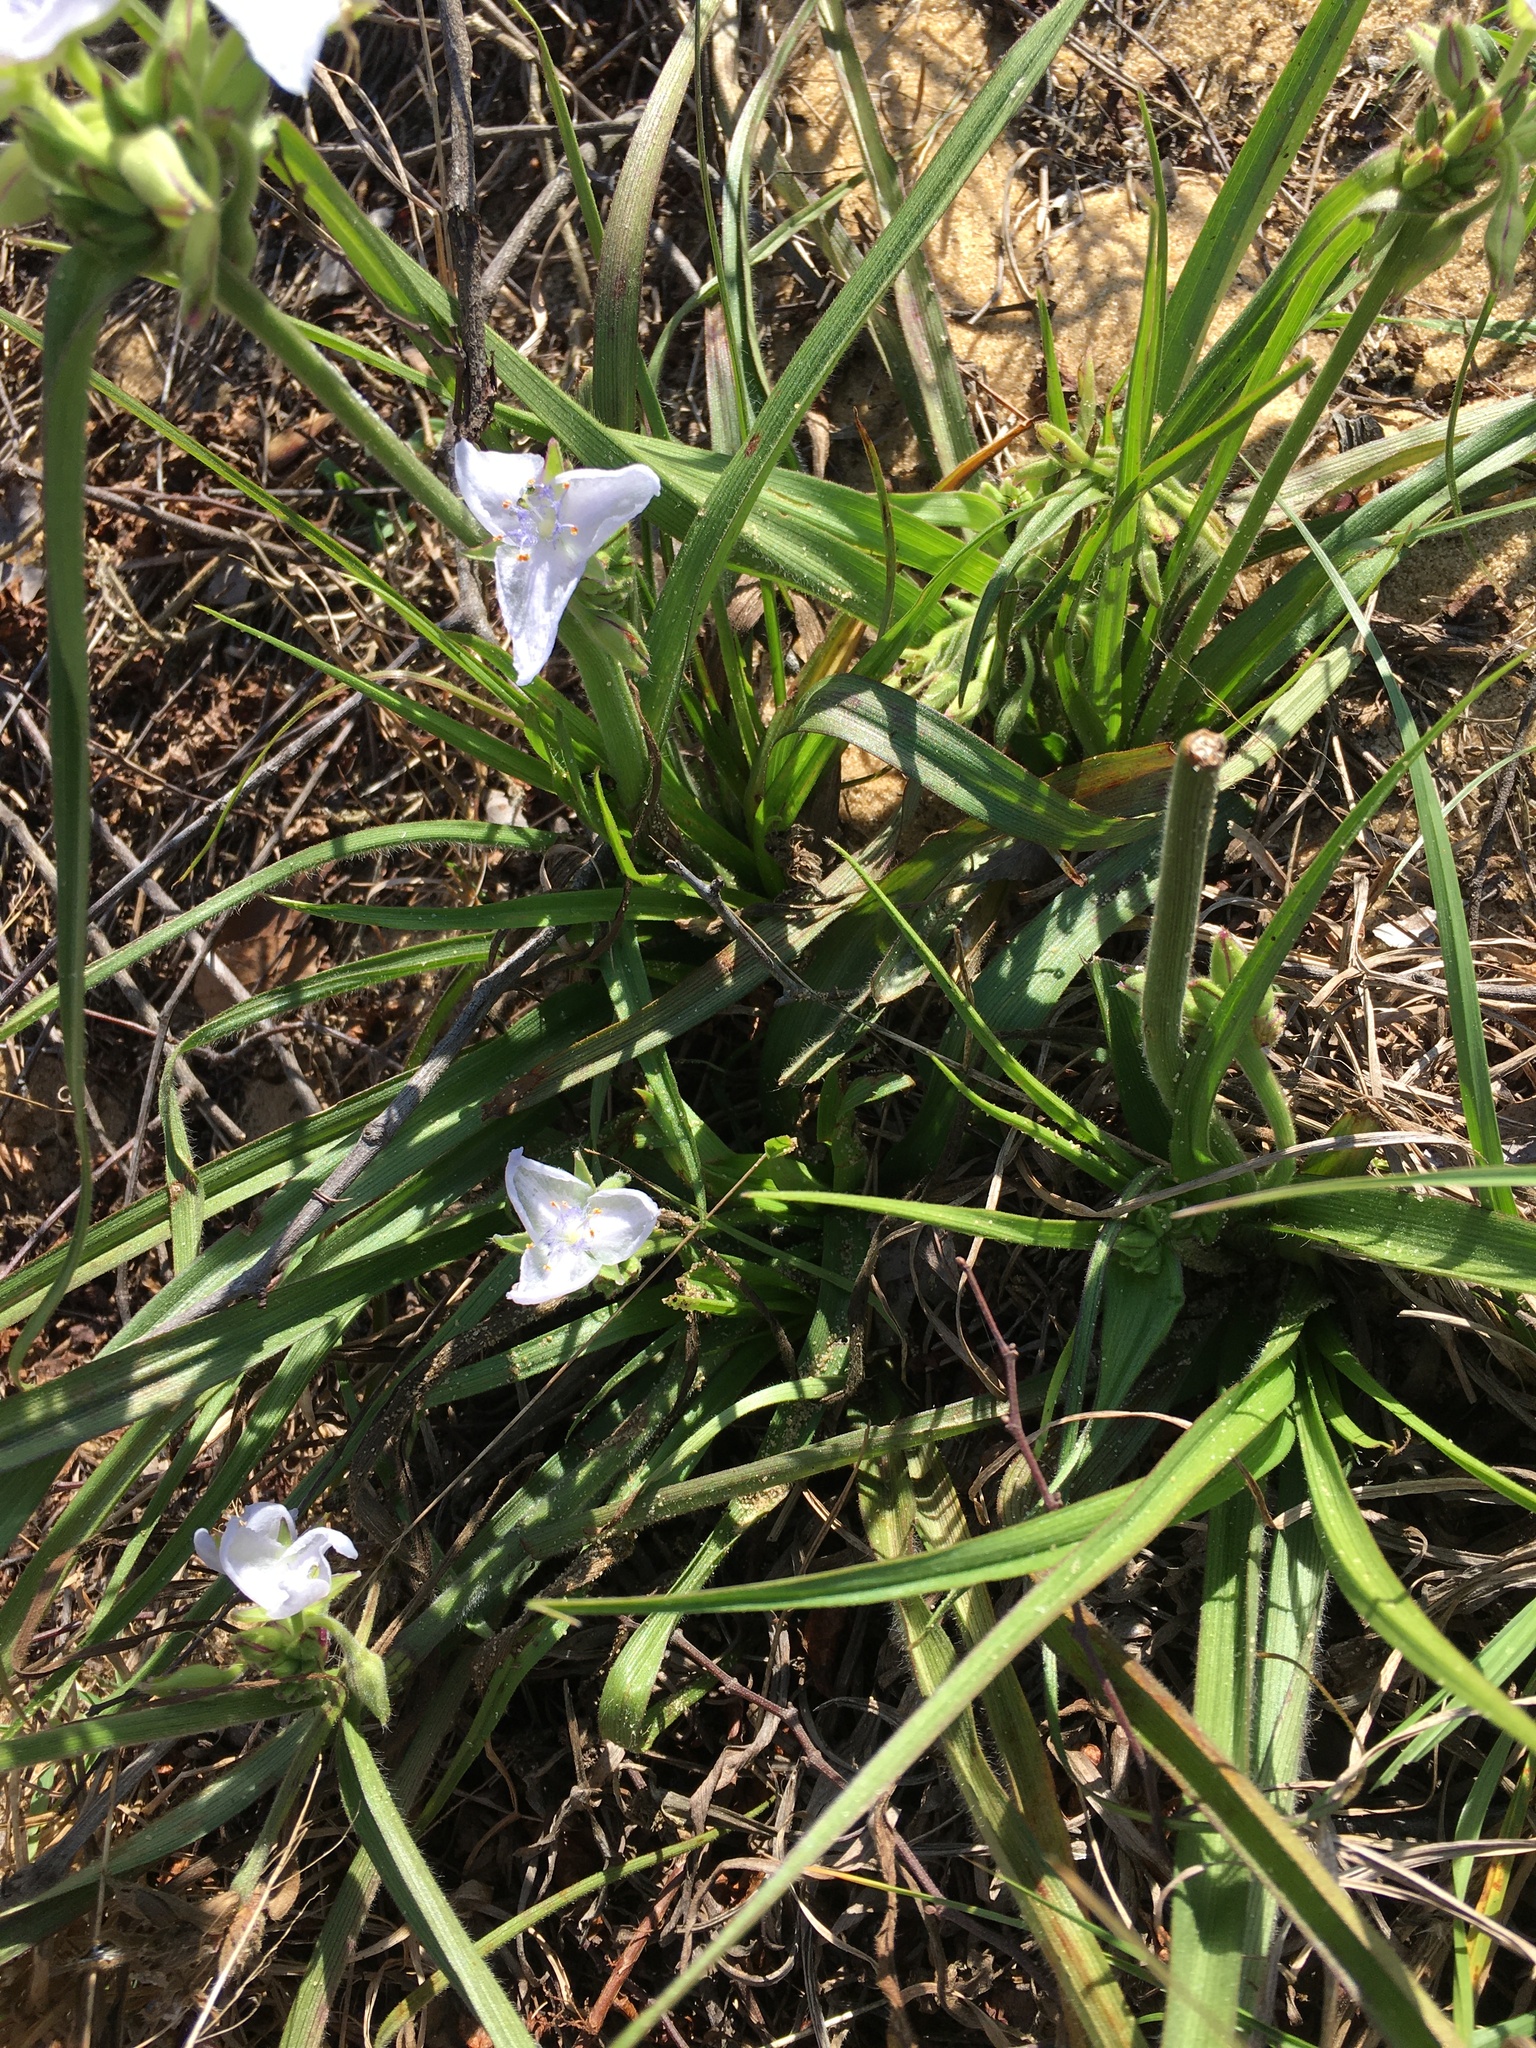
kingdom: Plantae
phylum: Tracheophyta
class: Liliopsida
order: Commelinales
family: Commelinaceae
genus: Tradescantia
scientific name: Tradescantia roseolens
